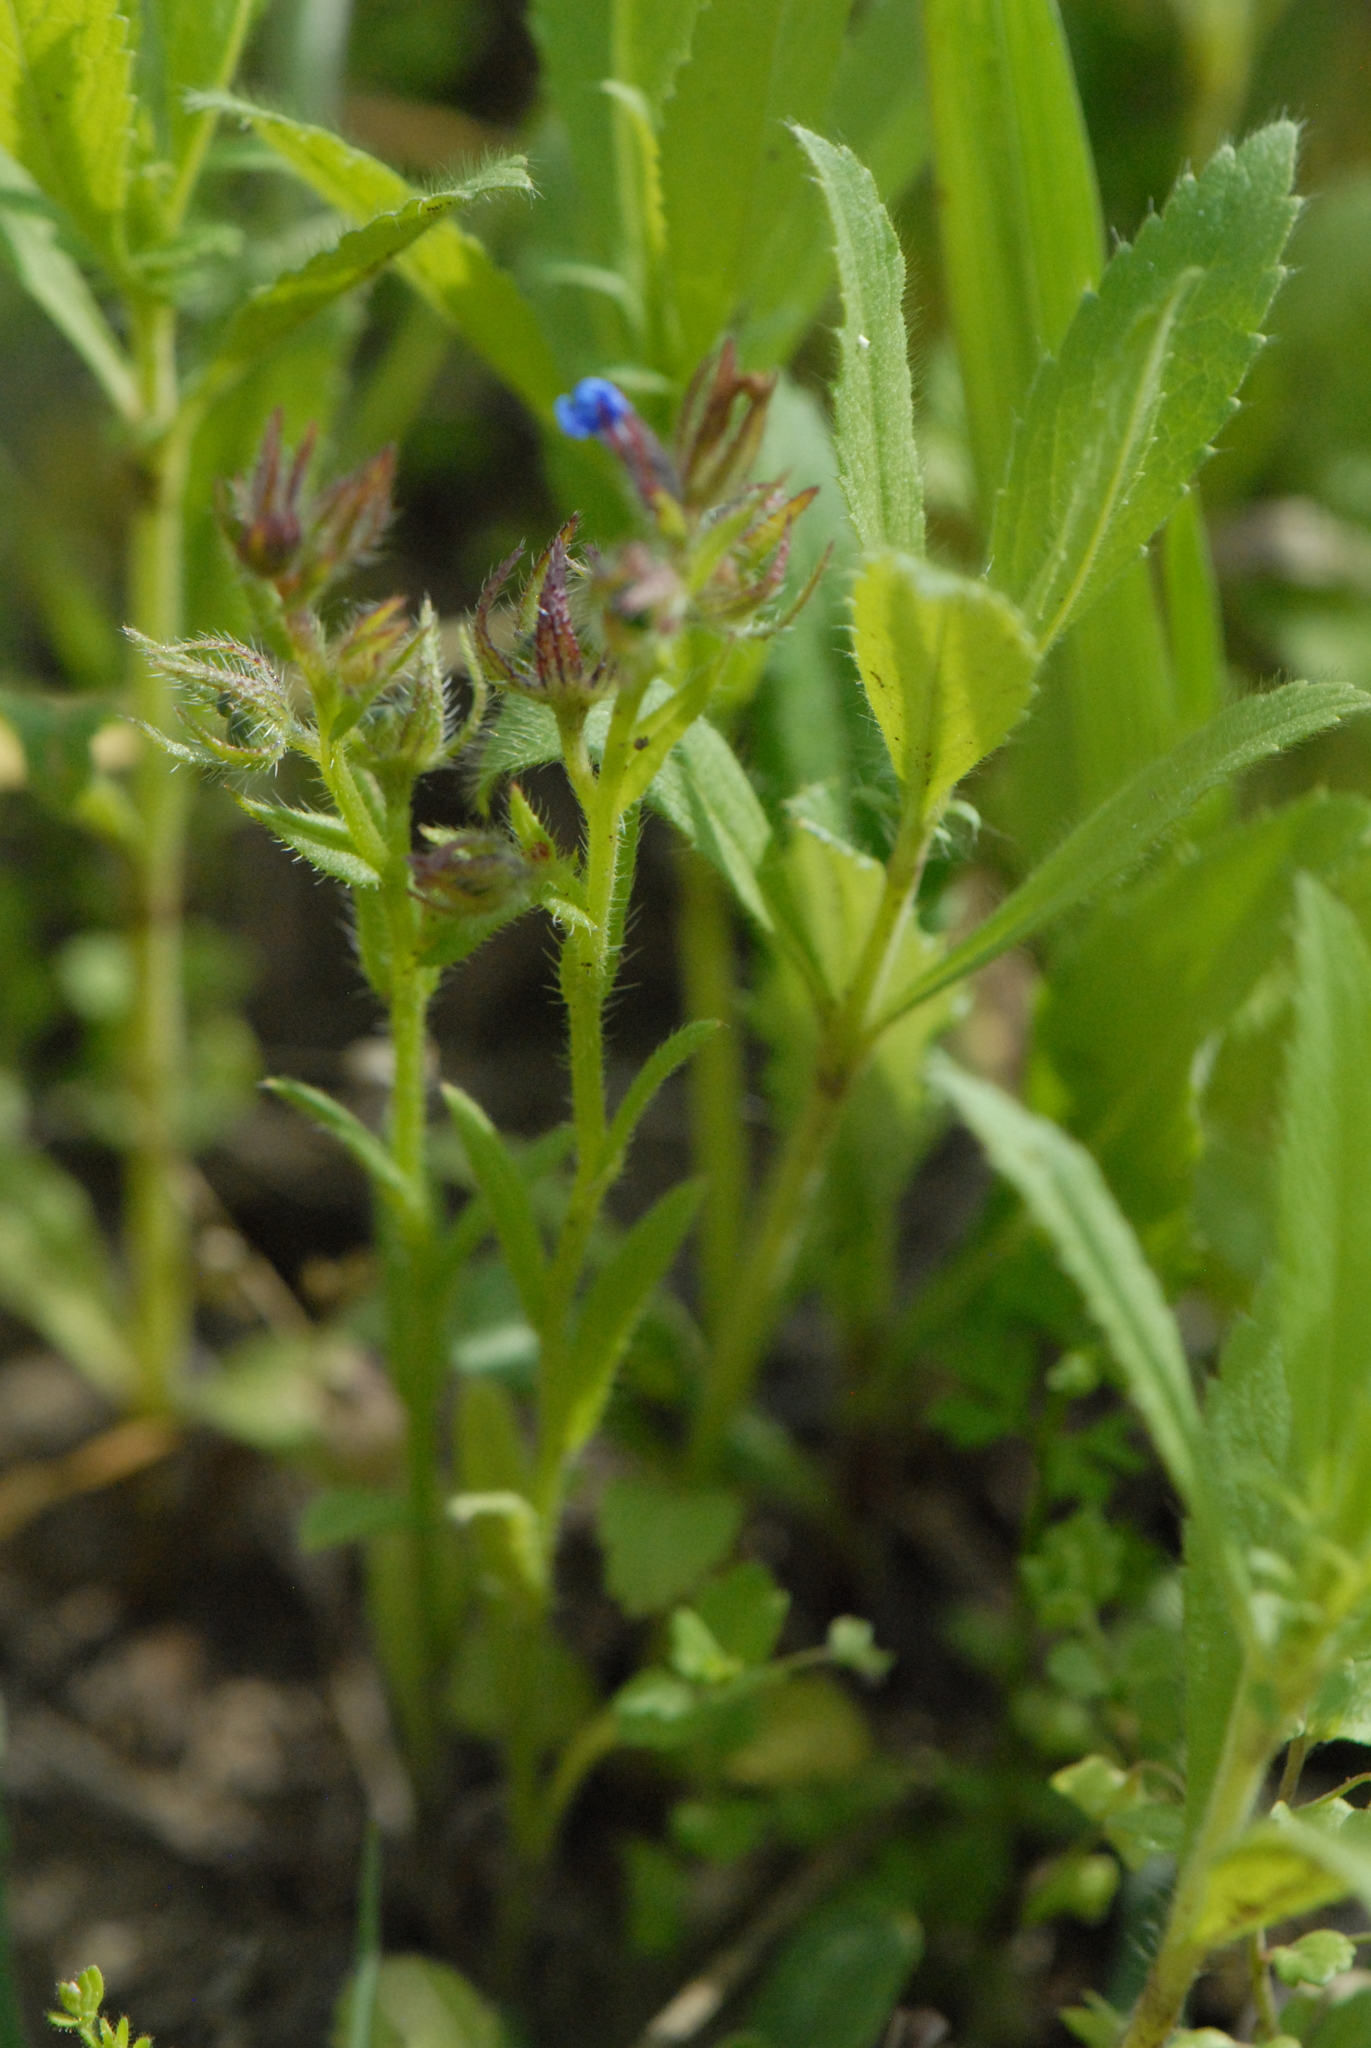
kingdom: Plantae
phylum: Tracheophyta
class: Magnoliopsida
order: Boraginales
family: Boraginaceae
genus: Lycopsis
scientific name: Lycopsis arvensis
